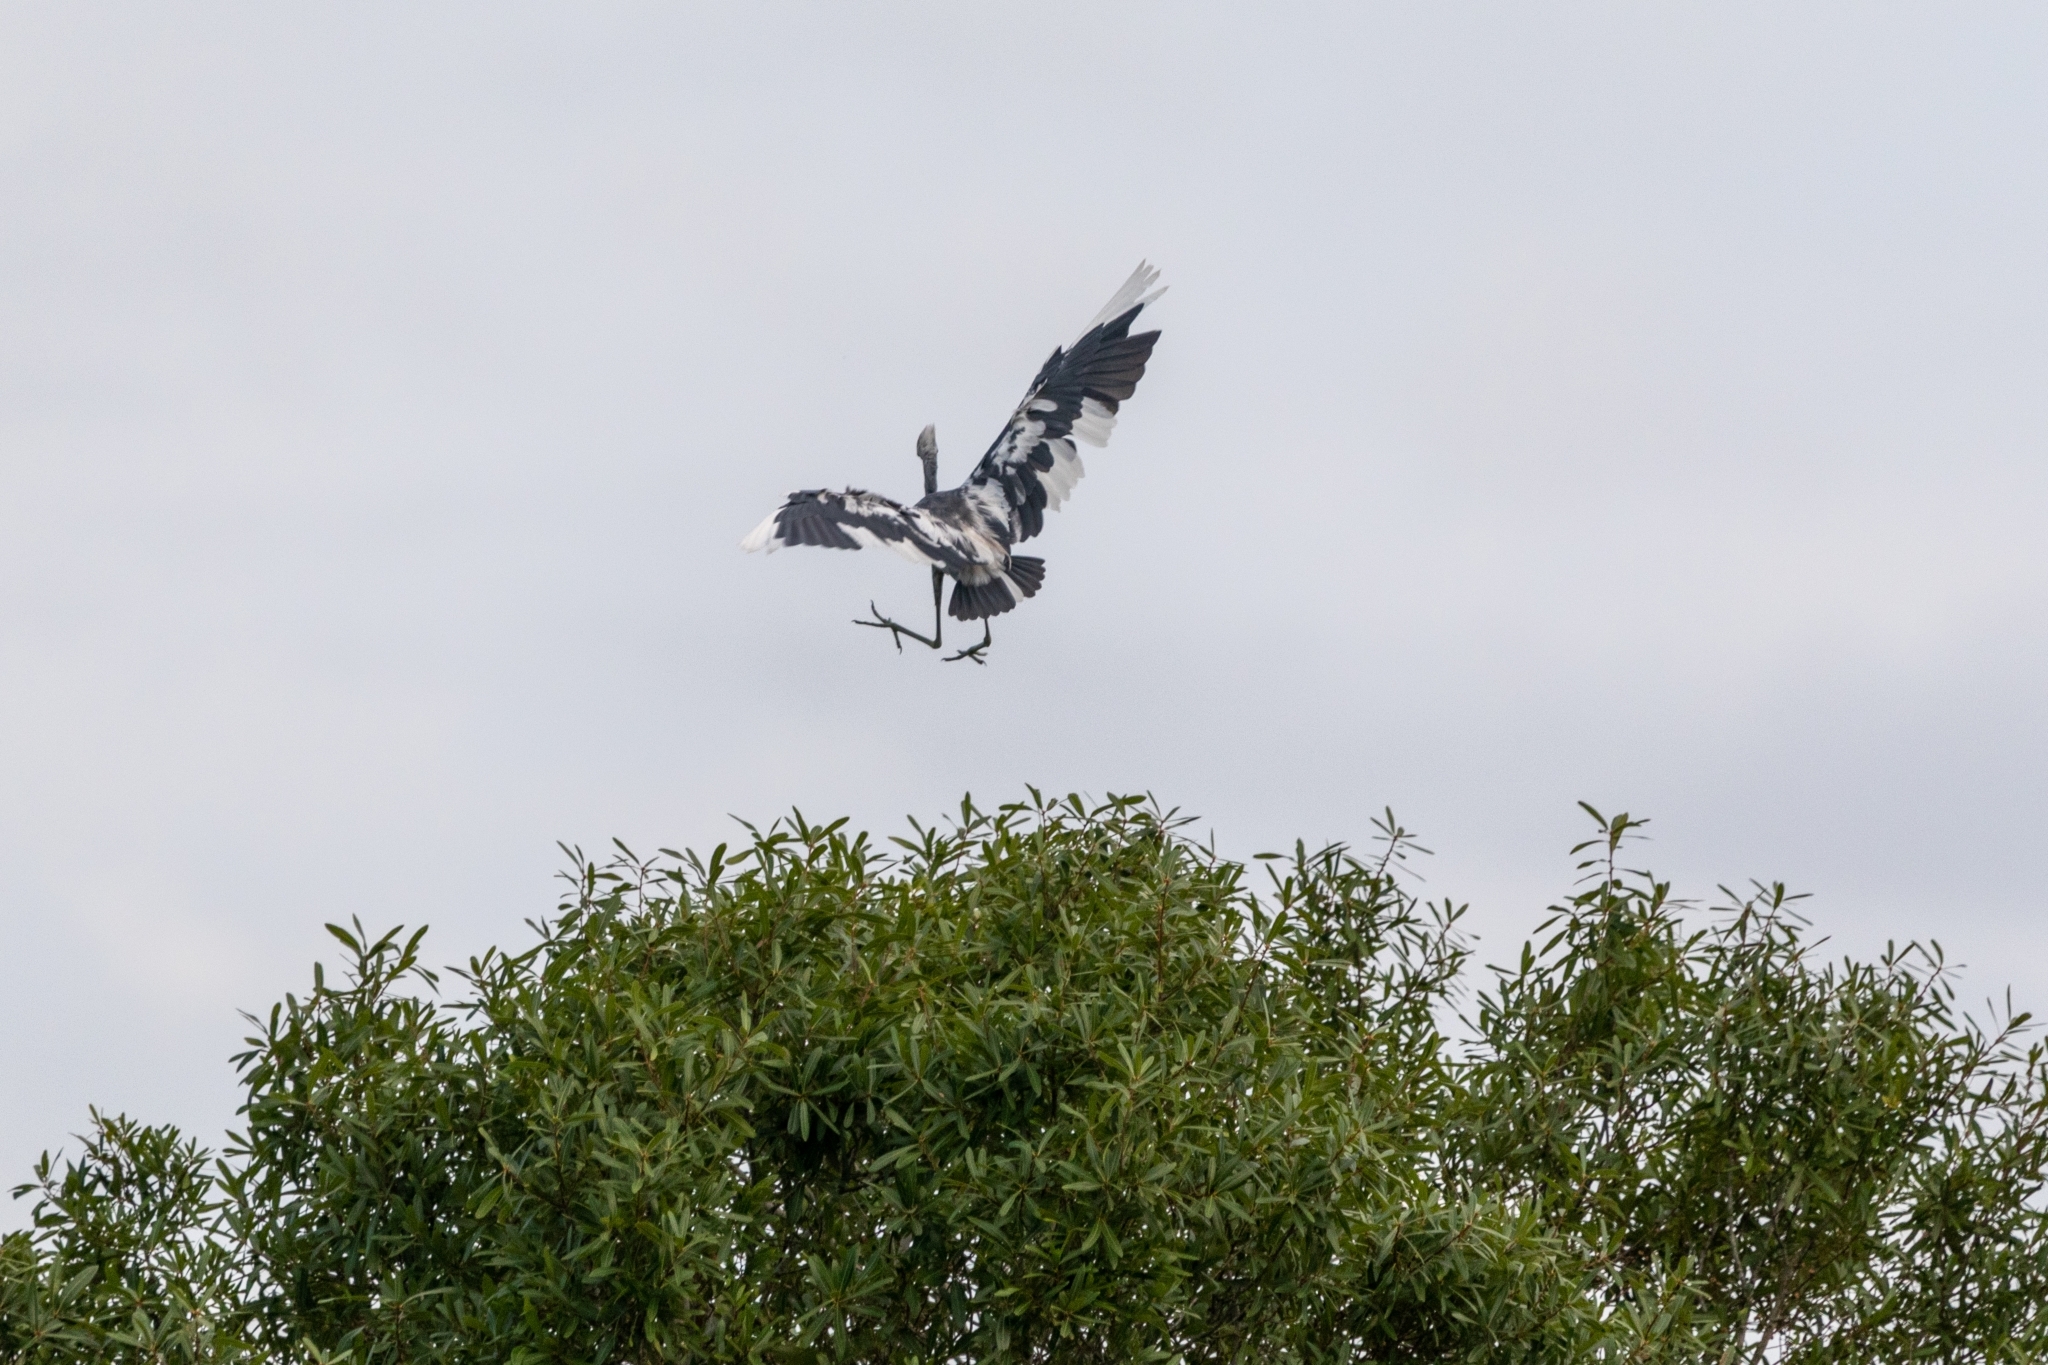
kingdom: Animalia
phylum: Chordata
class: Aves
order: Pelecaniformes
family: Ardeidae
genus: Egretta
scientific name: Egretta caerulea
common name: Little blue heron
